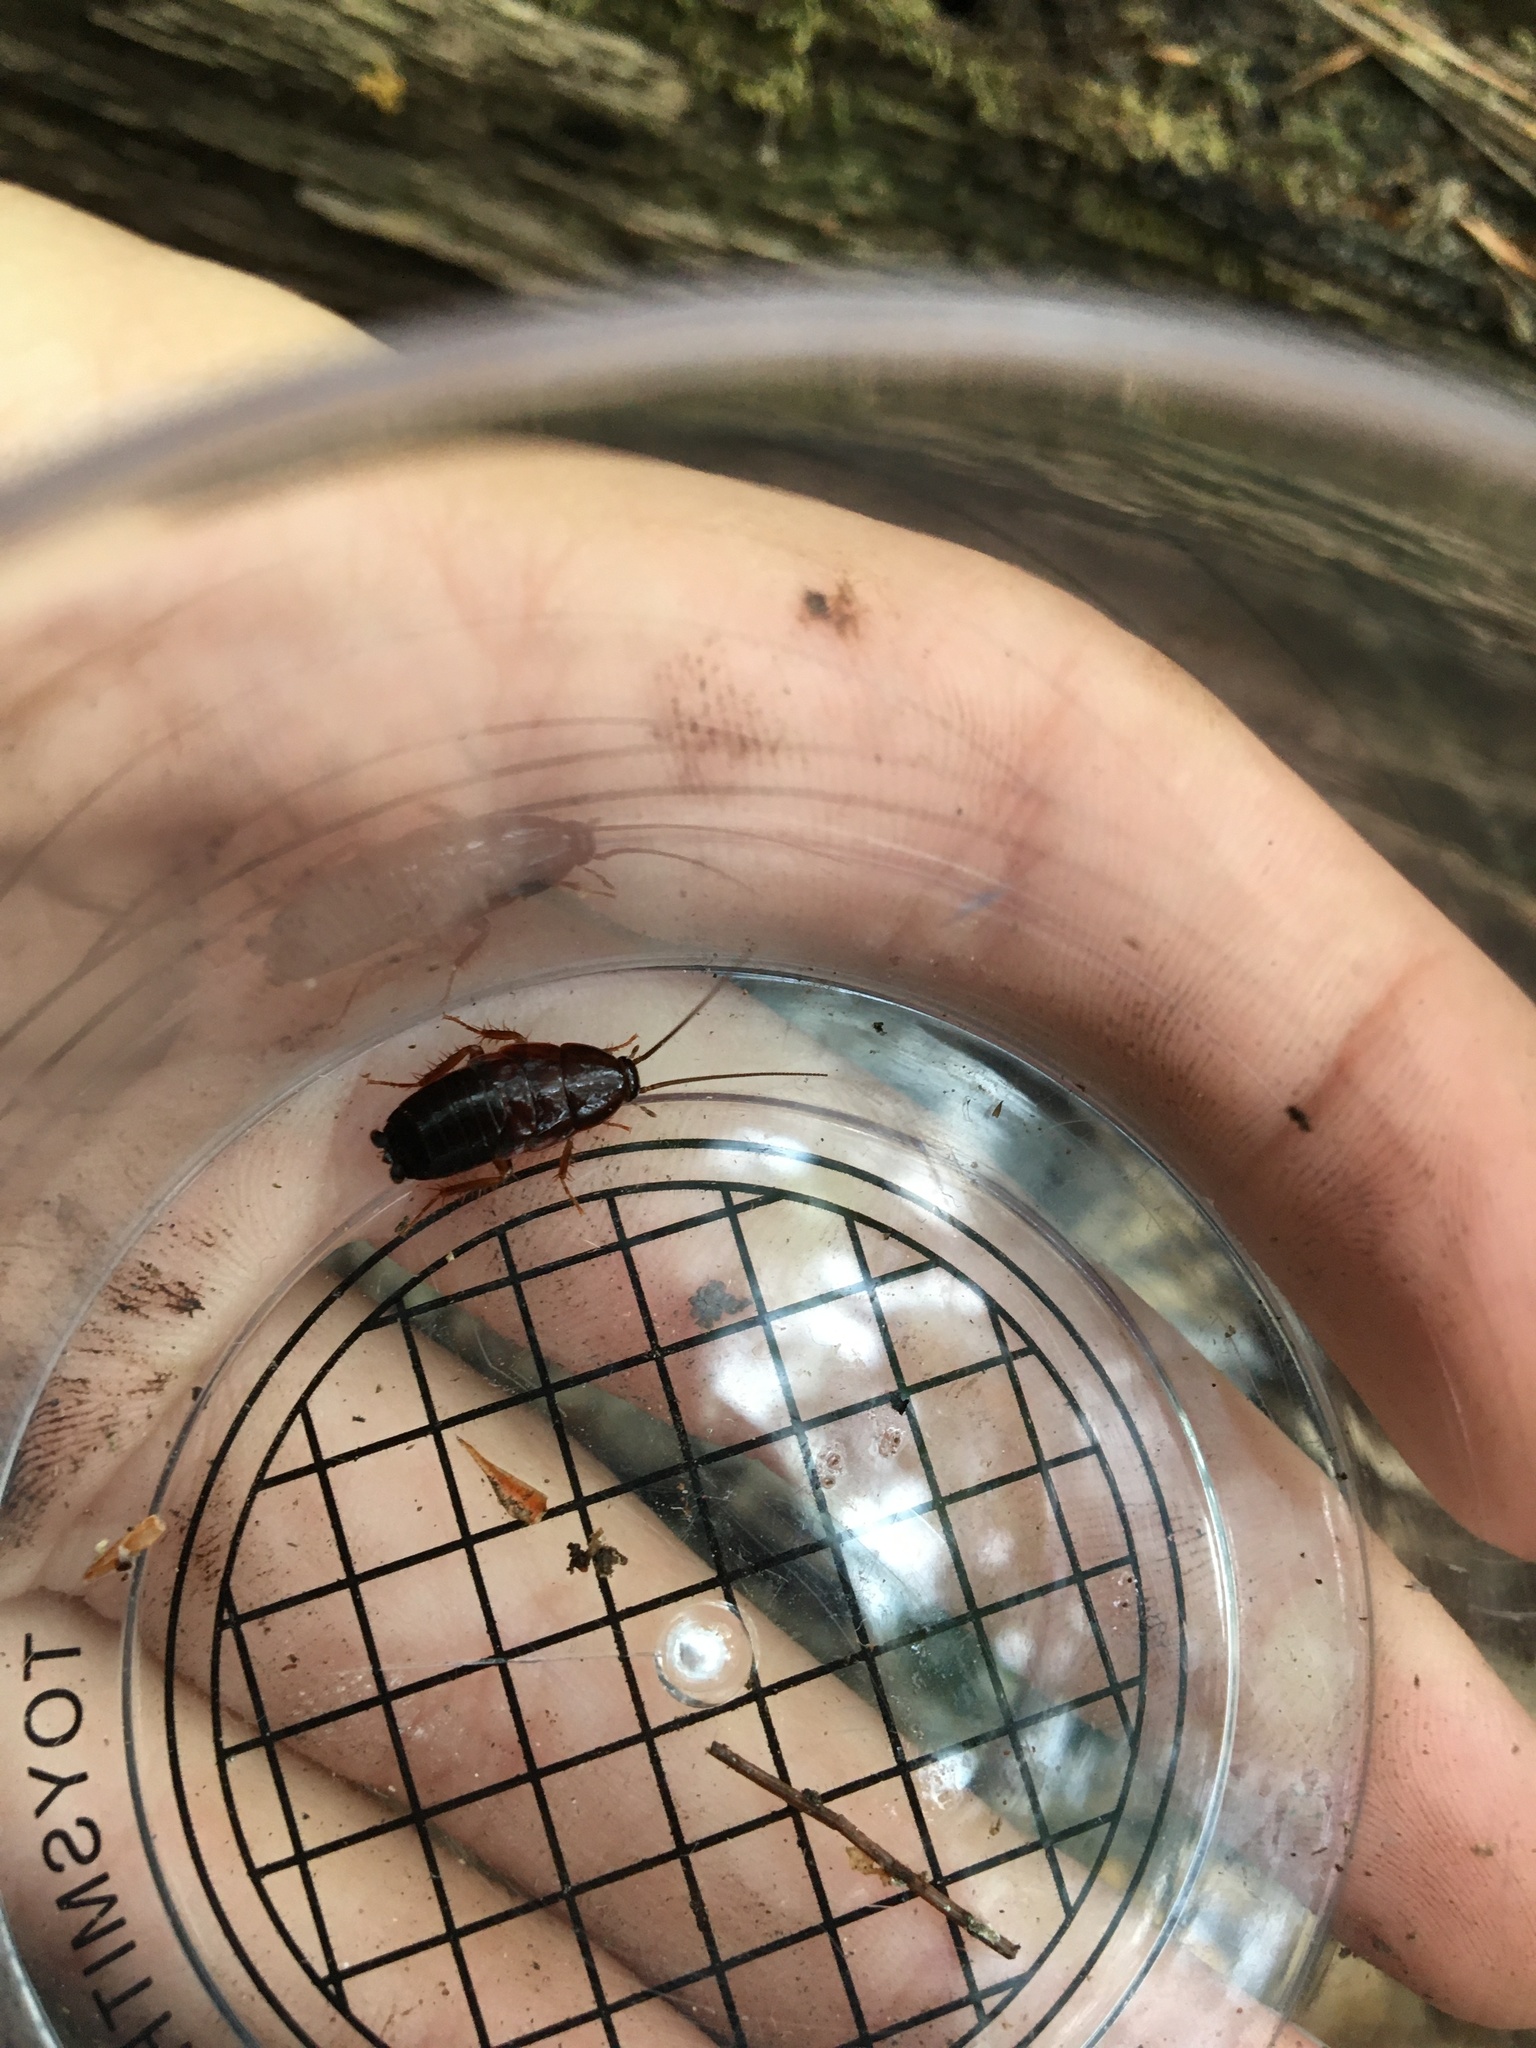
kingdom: Animalia
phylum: Arthropoda
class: Insecta
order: Blattodea
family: Ectobiidae
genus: Parcoblatta
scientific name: Parcoblatta
